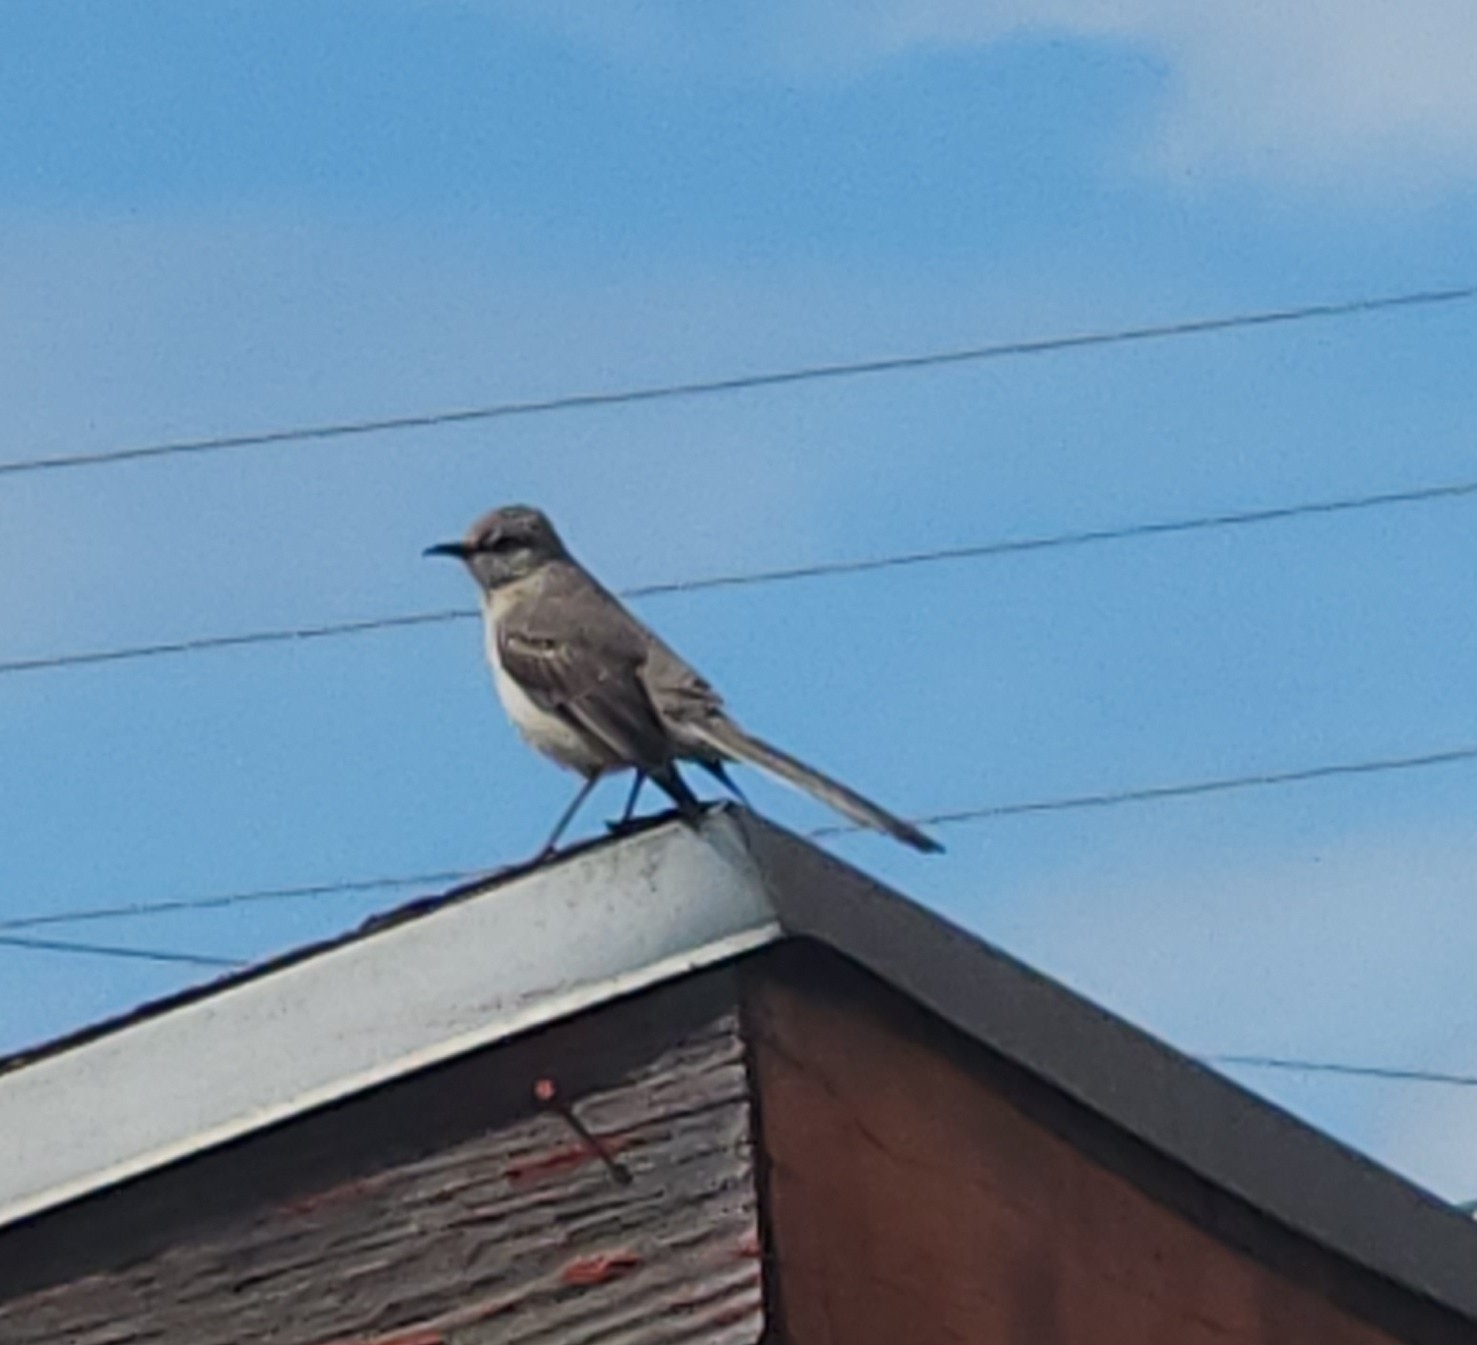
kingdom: Animalia
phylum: Chordata
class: Aves
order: Passeriformes
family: Mimidae
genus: Mimus
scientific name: Mimus polyglottos
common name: Northern mockingbird
